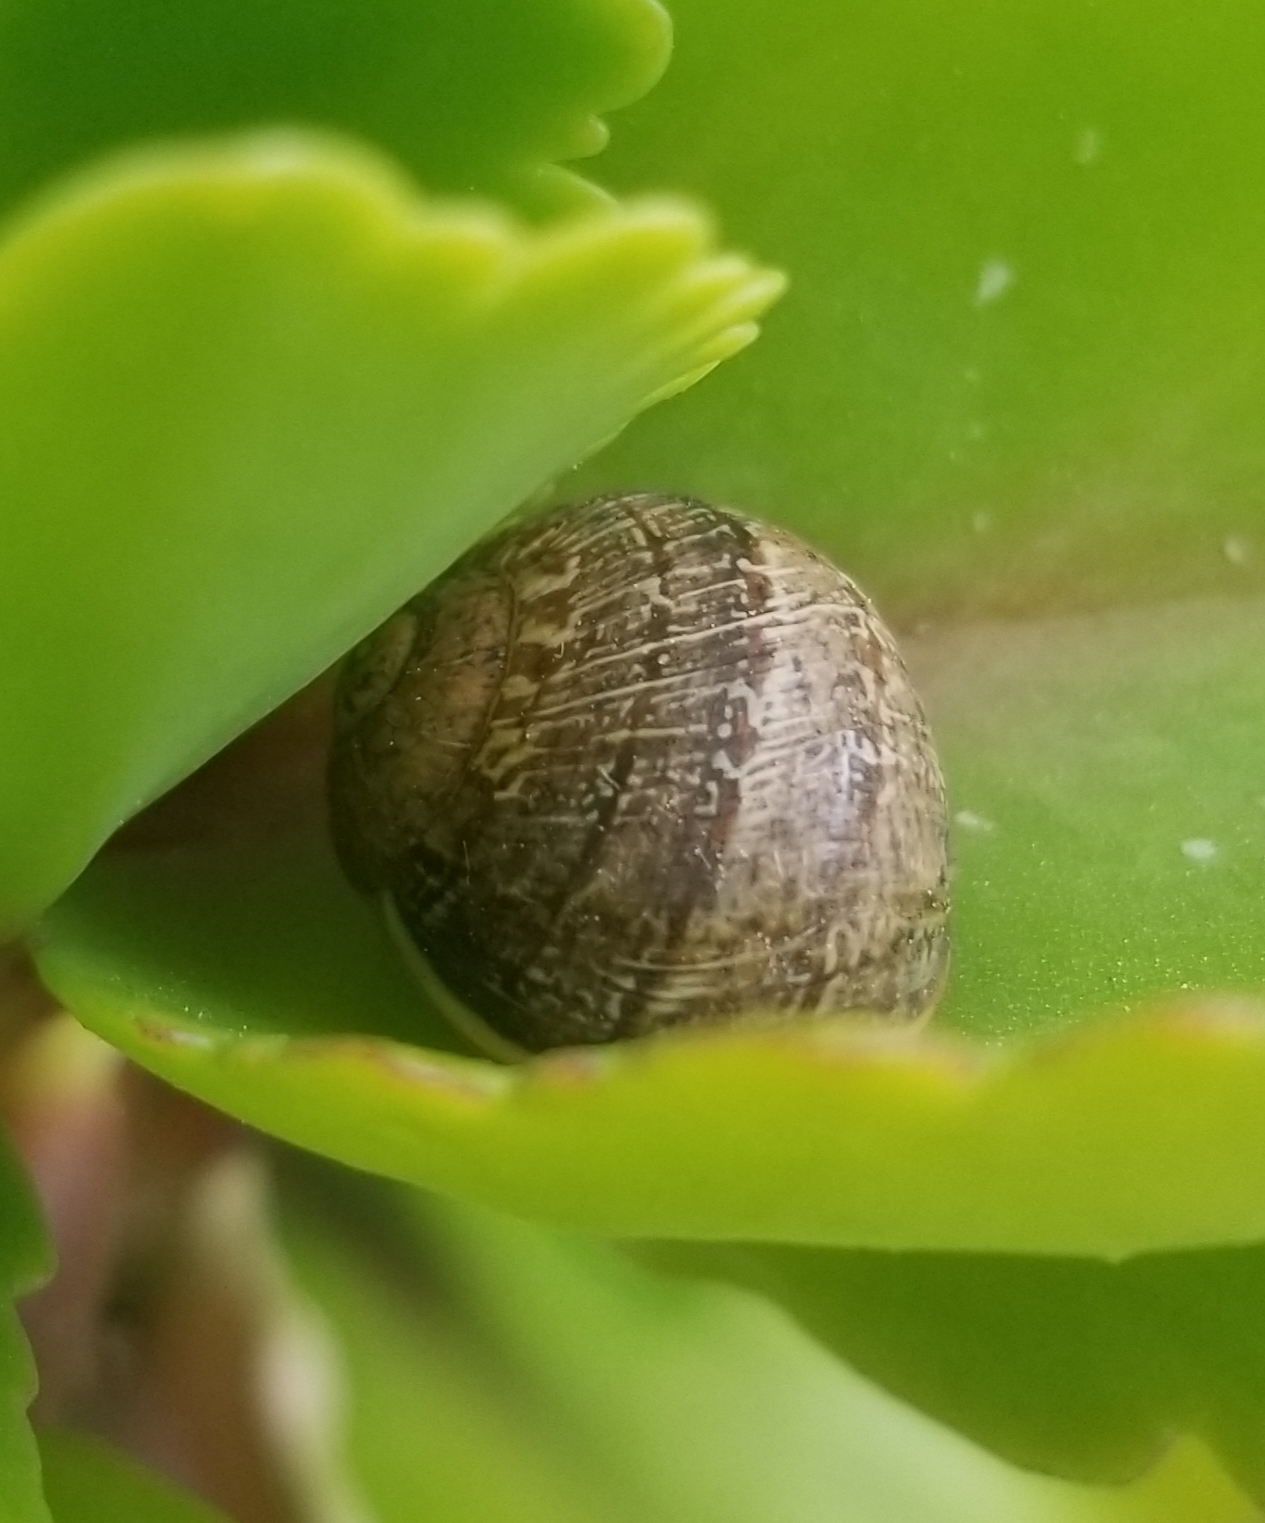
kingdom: Animalia
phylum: Mollusca
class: Gastropoda
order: Stylommatophora
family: Helicidae
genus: Cornu
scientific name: Cornu aspersum
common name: Brown garden snail
